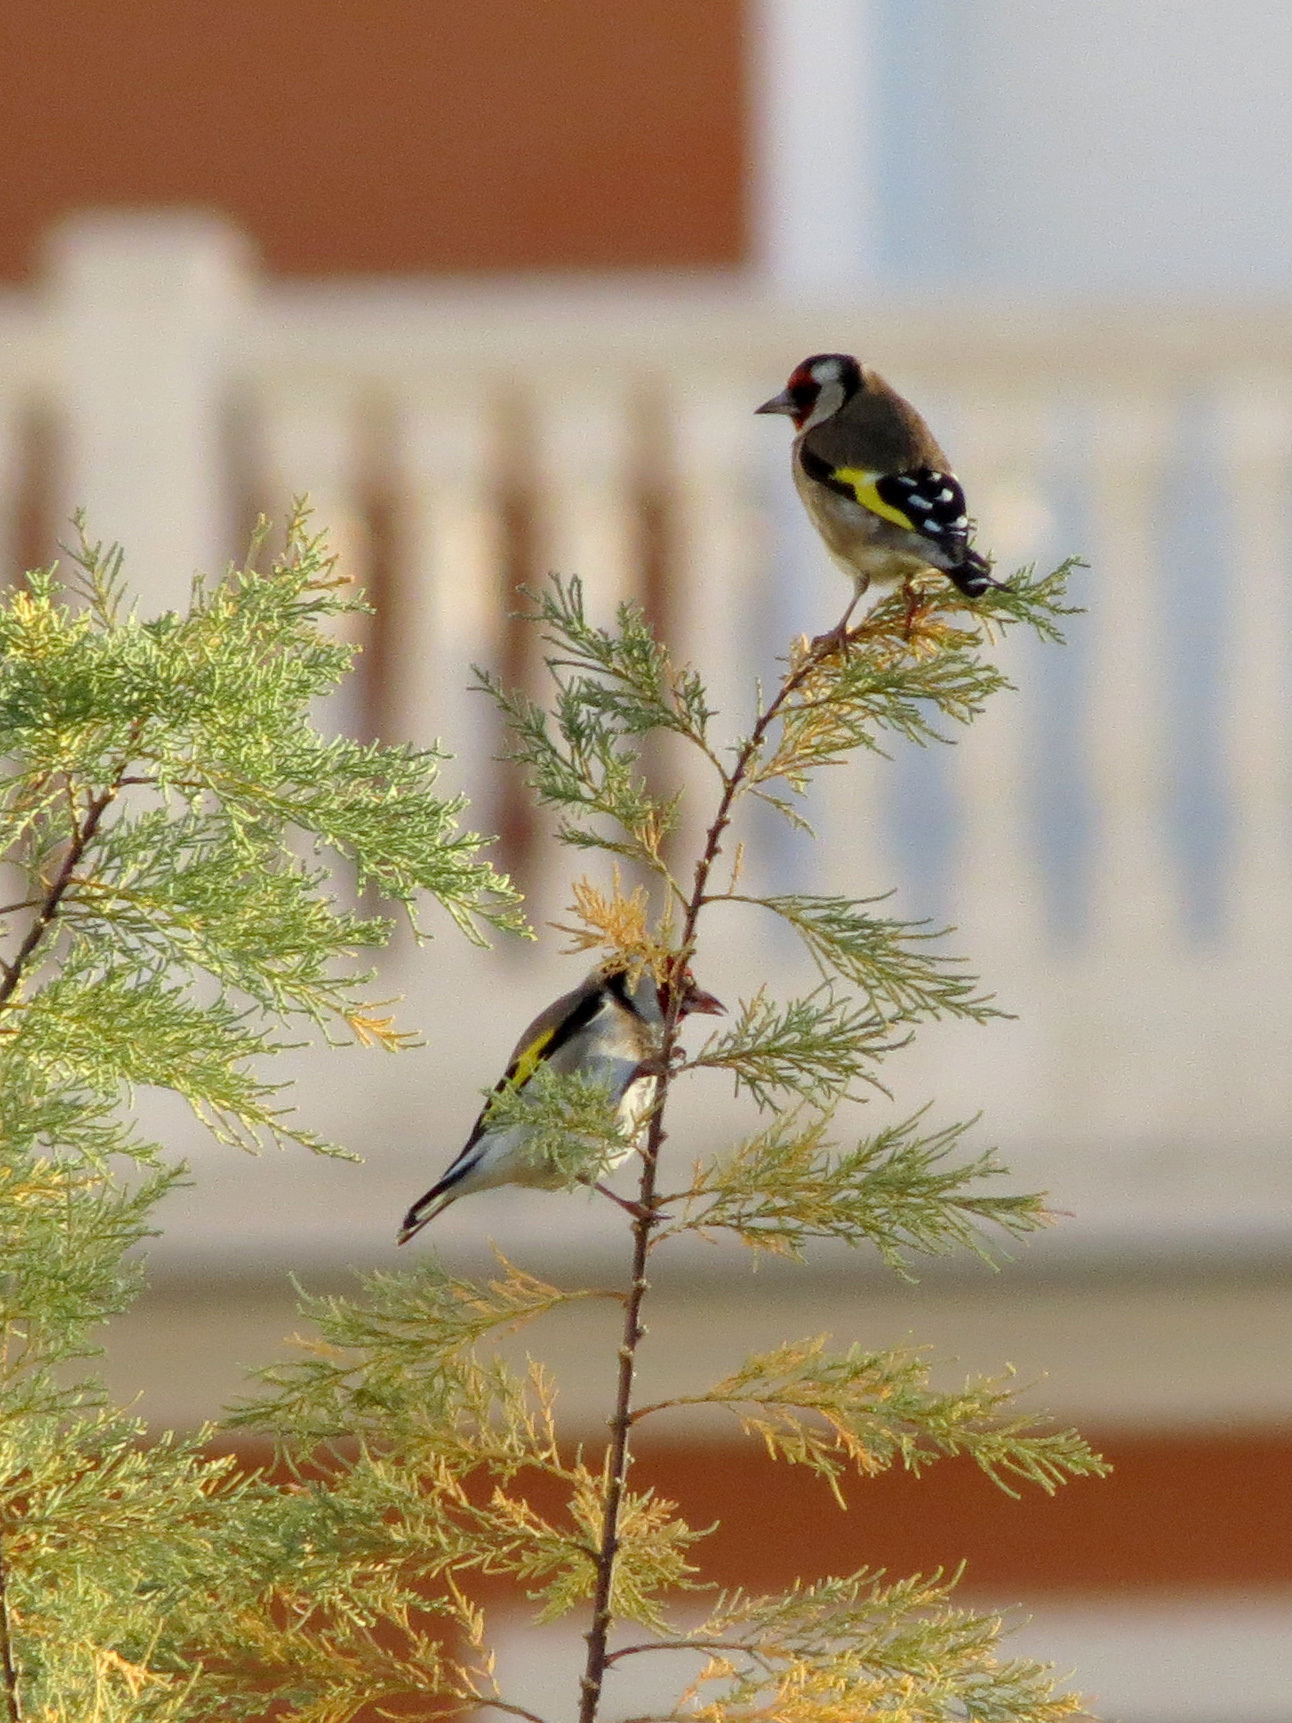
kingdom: Animalia
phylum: Chordata
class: Aves
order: Passeriformes
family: Fringillidae
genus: Carduelis
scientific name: Carduelis carduelis
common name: European goldfinch
